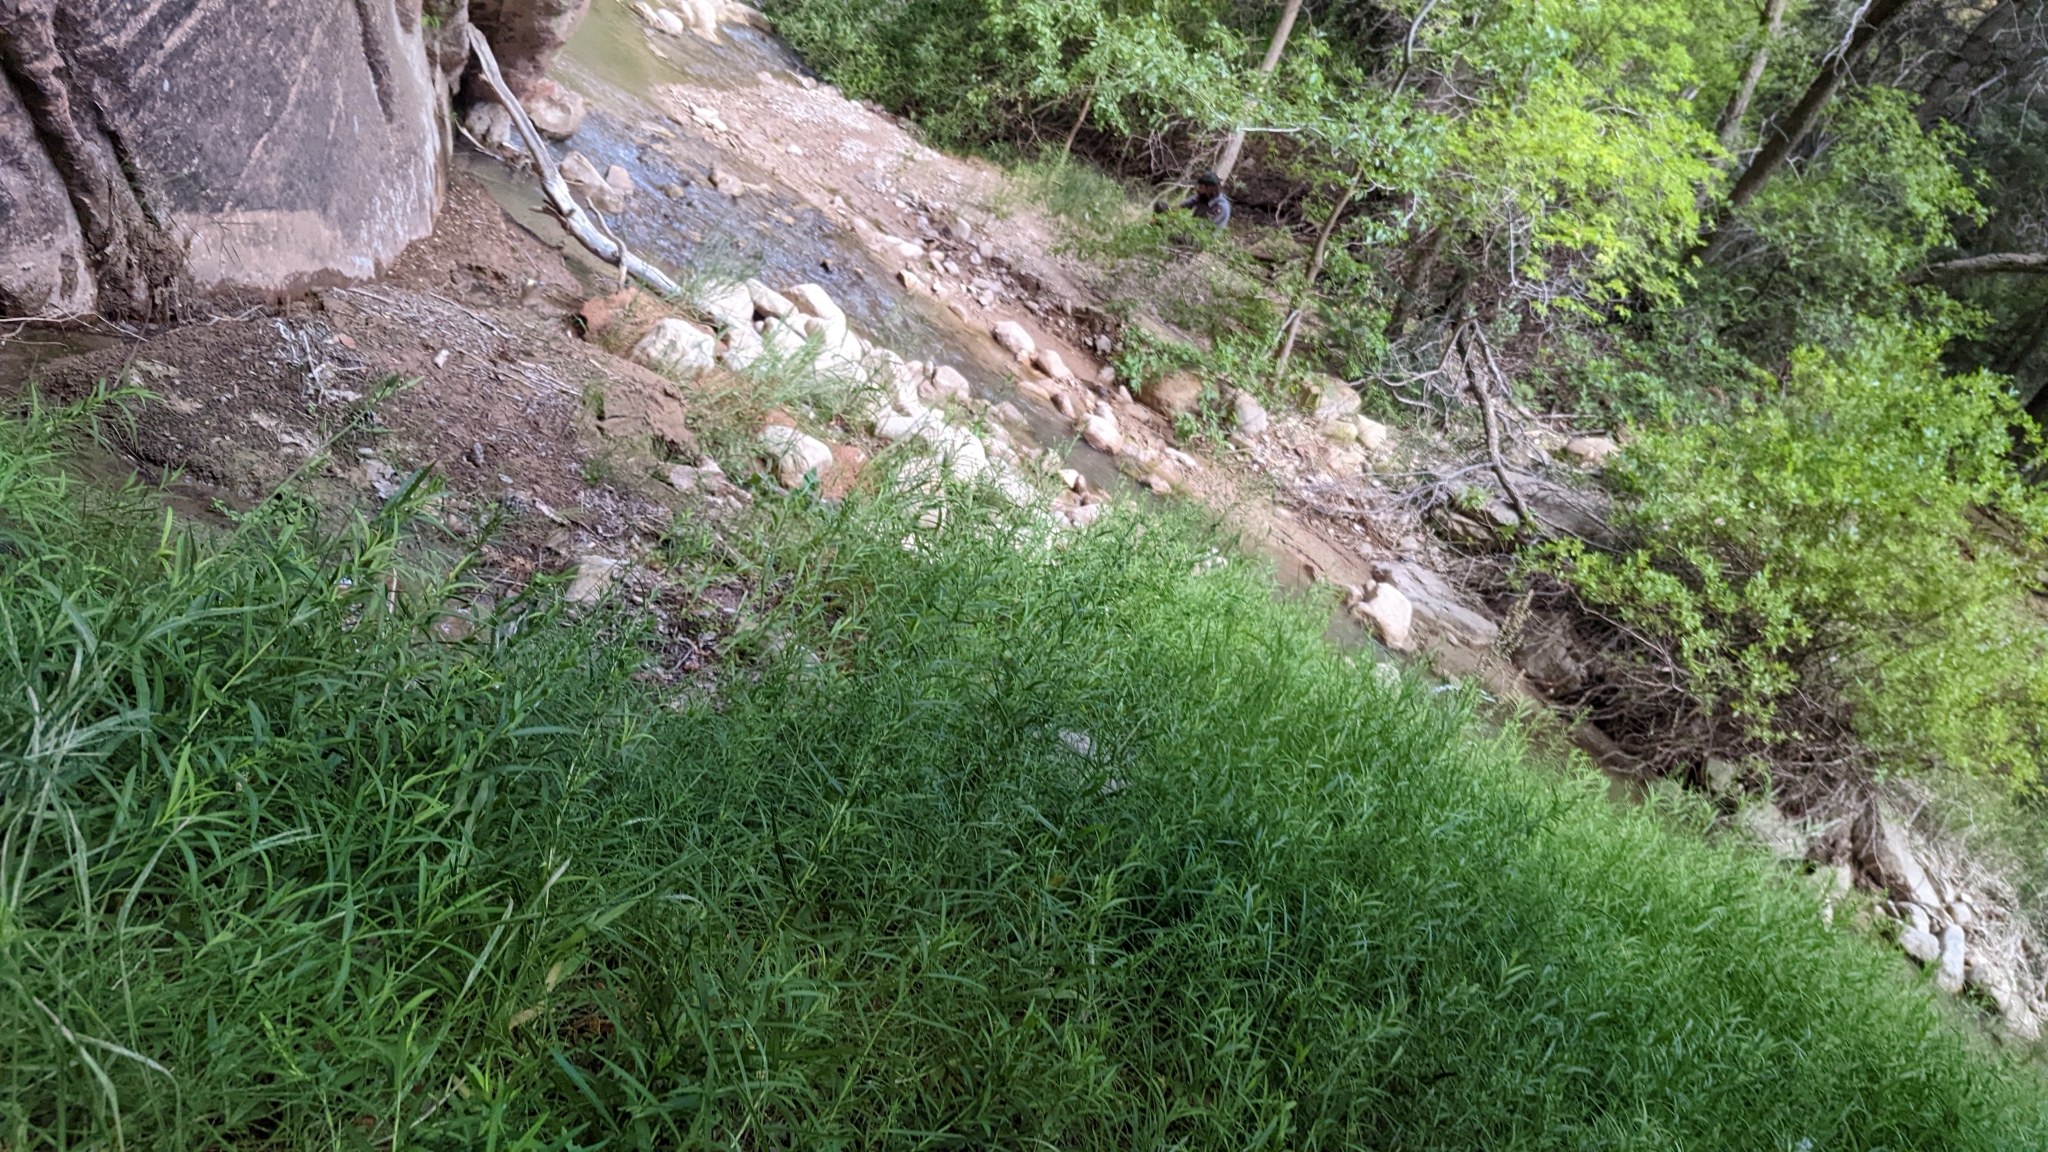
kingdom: Plantae
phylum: Tracheophyta
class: Magnoliopsida
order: Apiales
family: Araliaceae
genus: Aralia
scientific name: Aralia bicrenata
